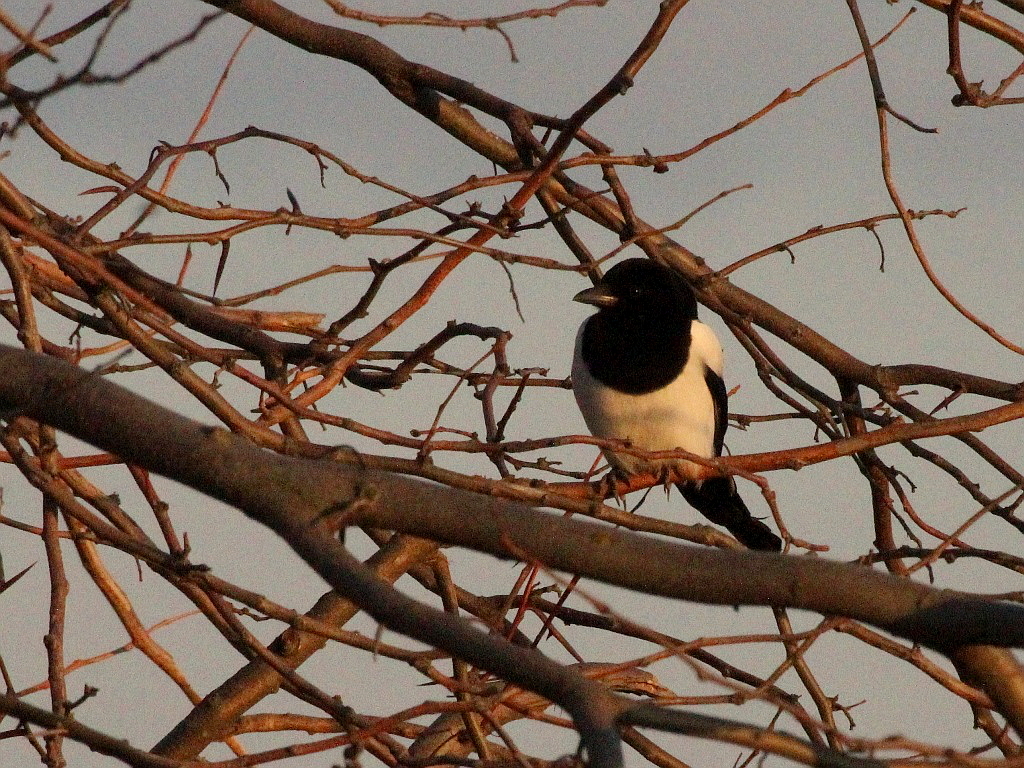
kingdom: Animalia
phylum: Chordata
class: Aves
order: Passeriformes
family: Corvidae
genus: Pica
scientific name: Pica pica
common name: Eurasian magpie
